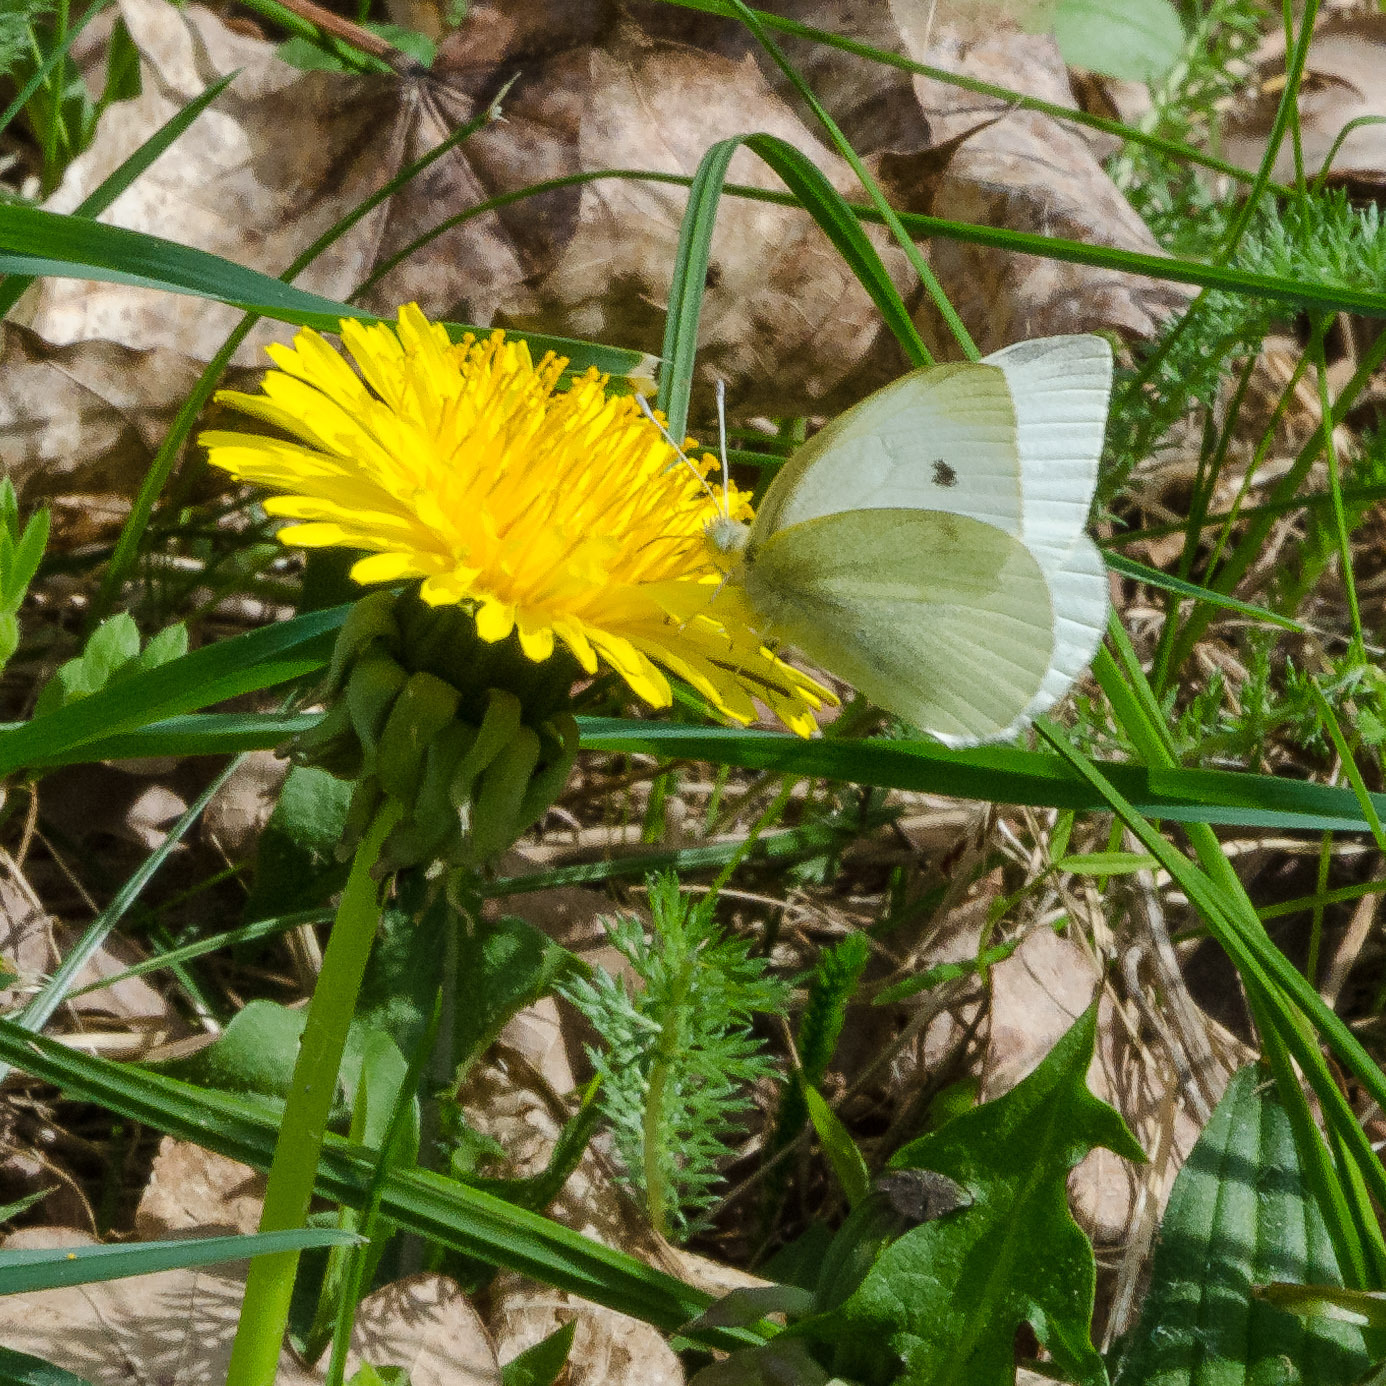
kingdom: Animalia
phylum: Arthropoda
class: Insecta
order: Lepidoptera
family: Pieridae
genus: Pieris
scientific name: Pieris rapae
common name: Small white
